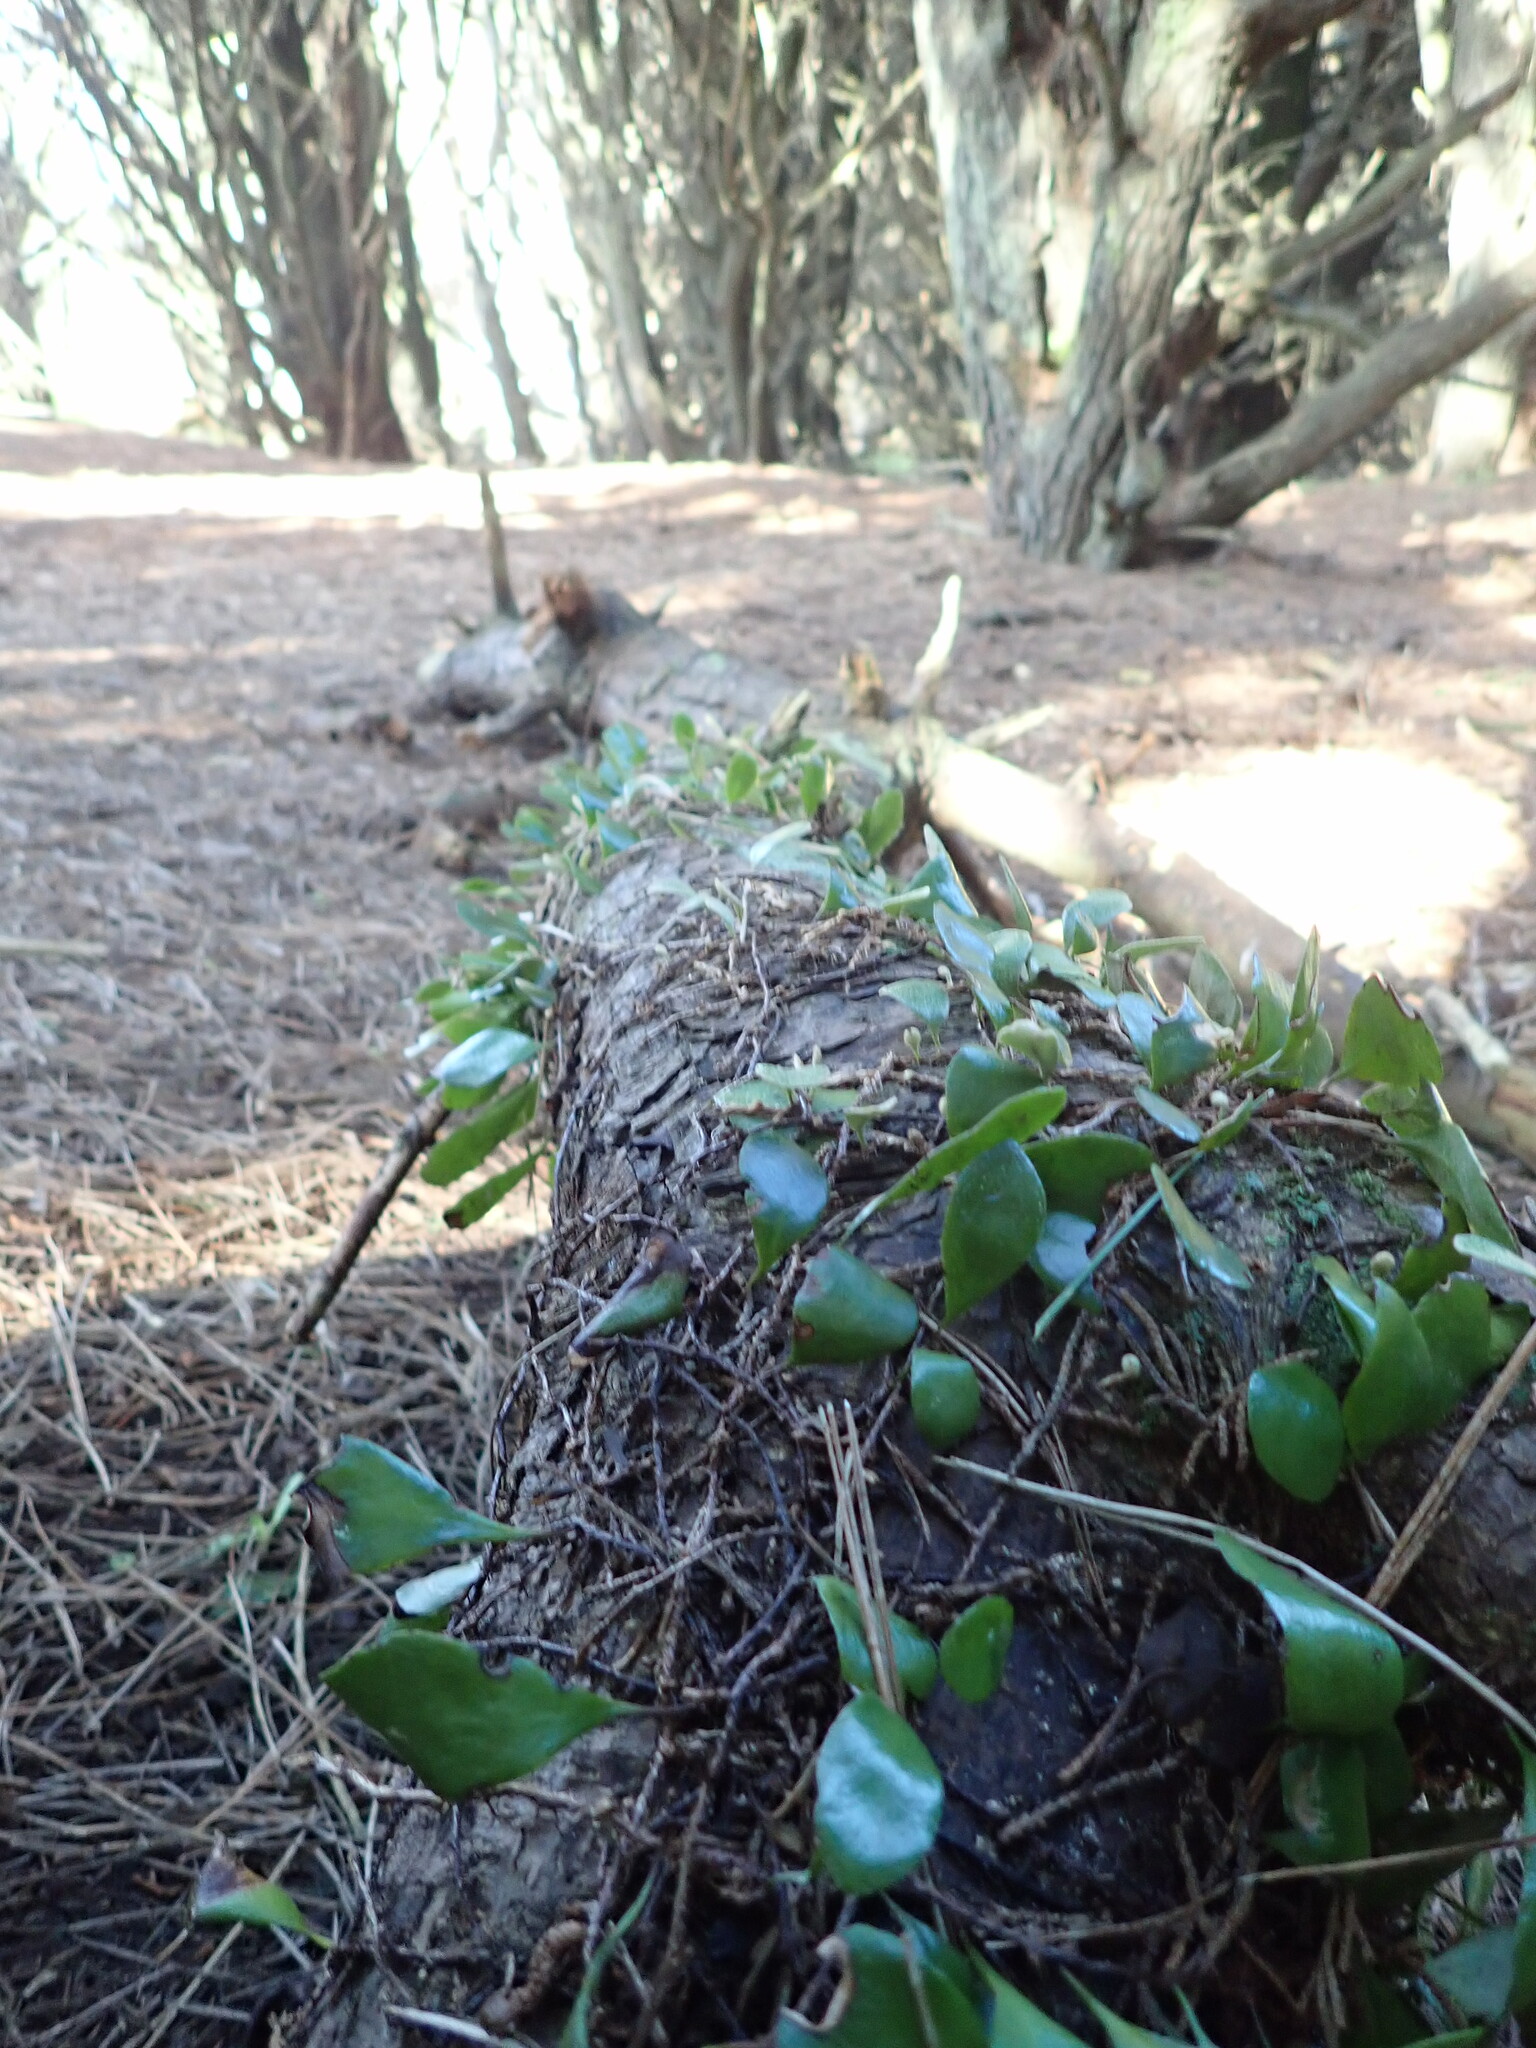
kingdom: Plantae
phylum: Tracheophyta
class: Polypodiopsida
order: Polypodiales
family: Polypodiaceae
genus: Pyrrosia
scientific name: Pyrrosia eleagnifolia
